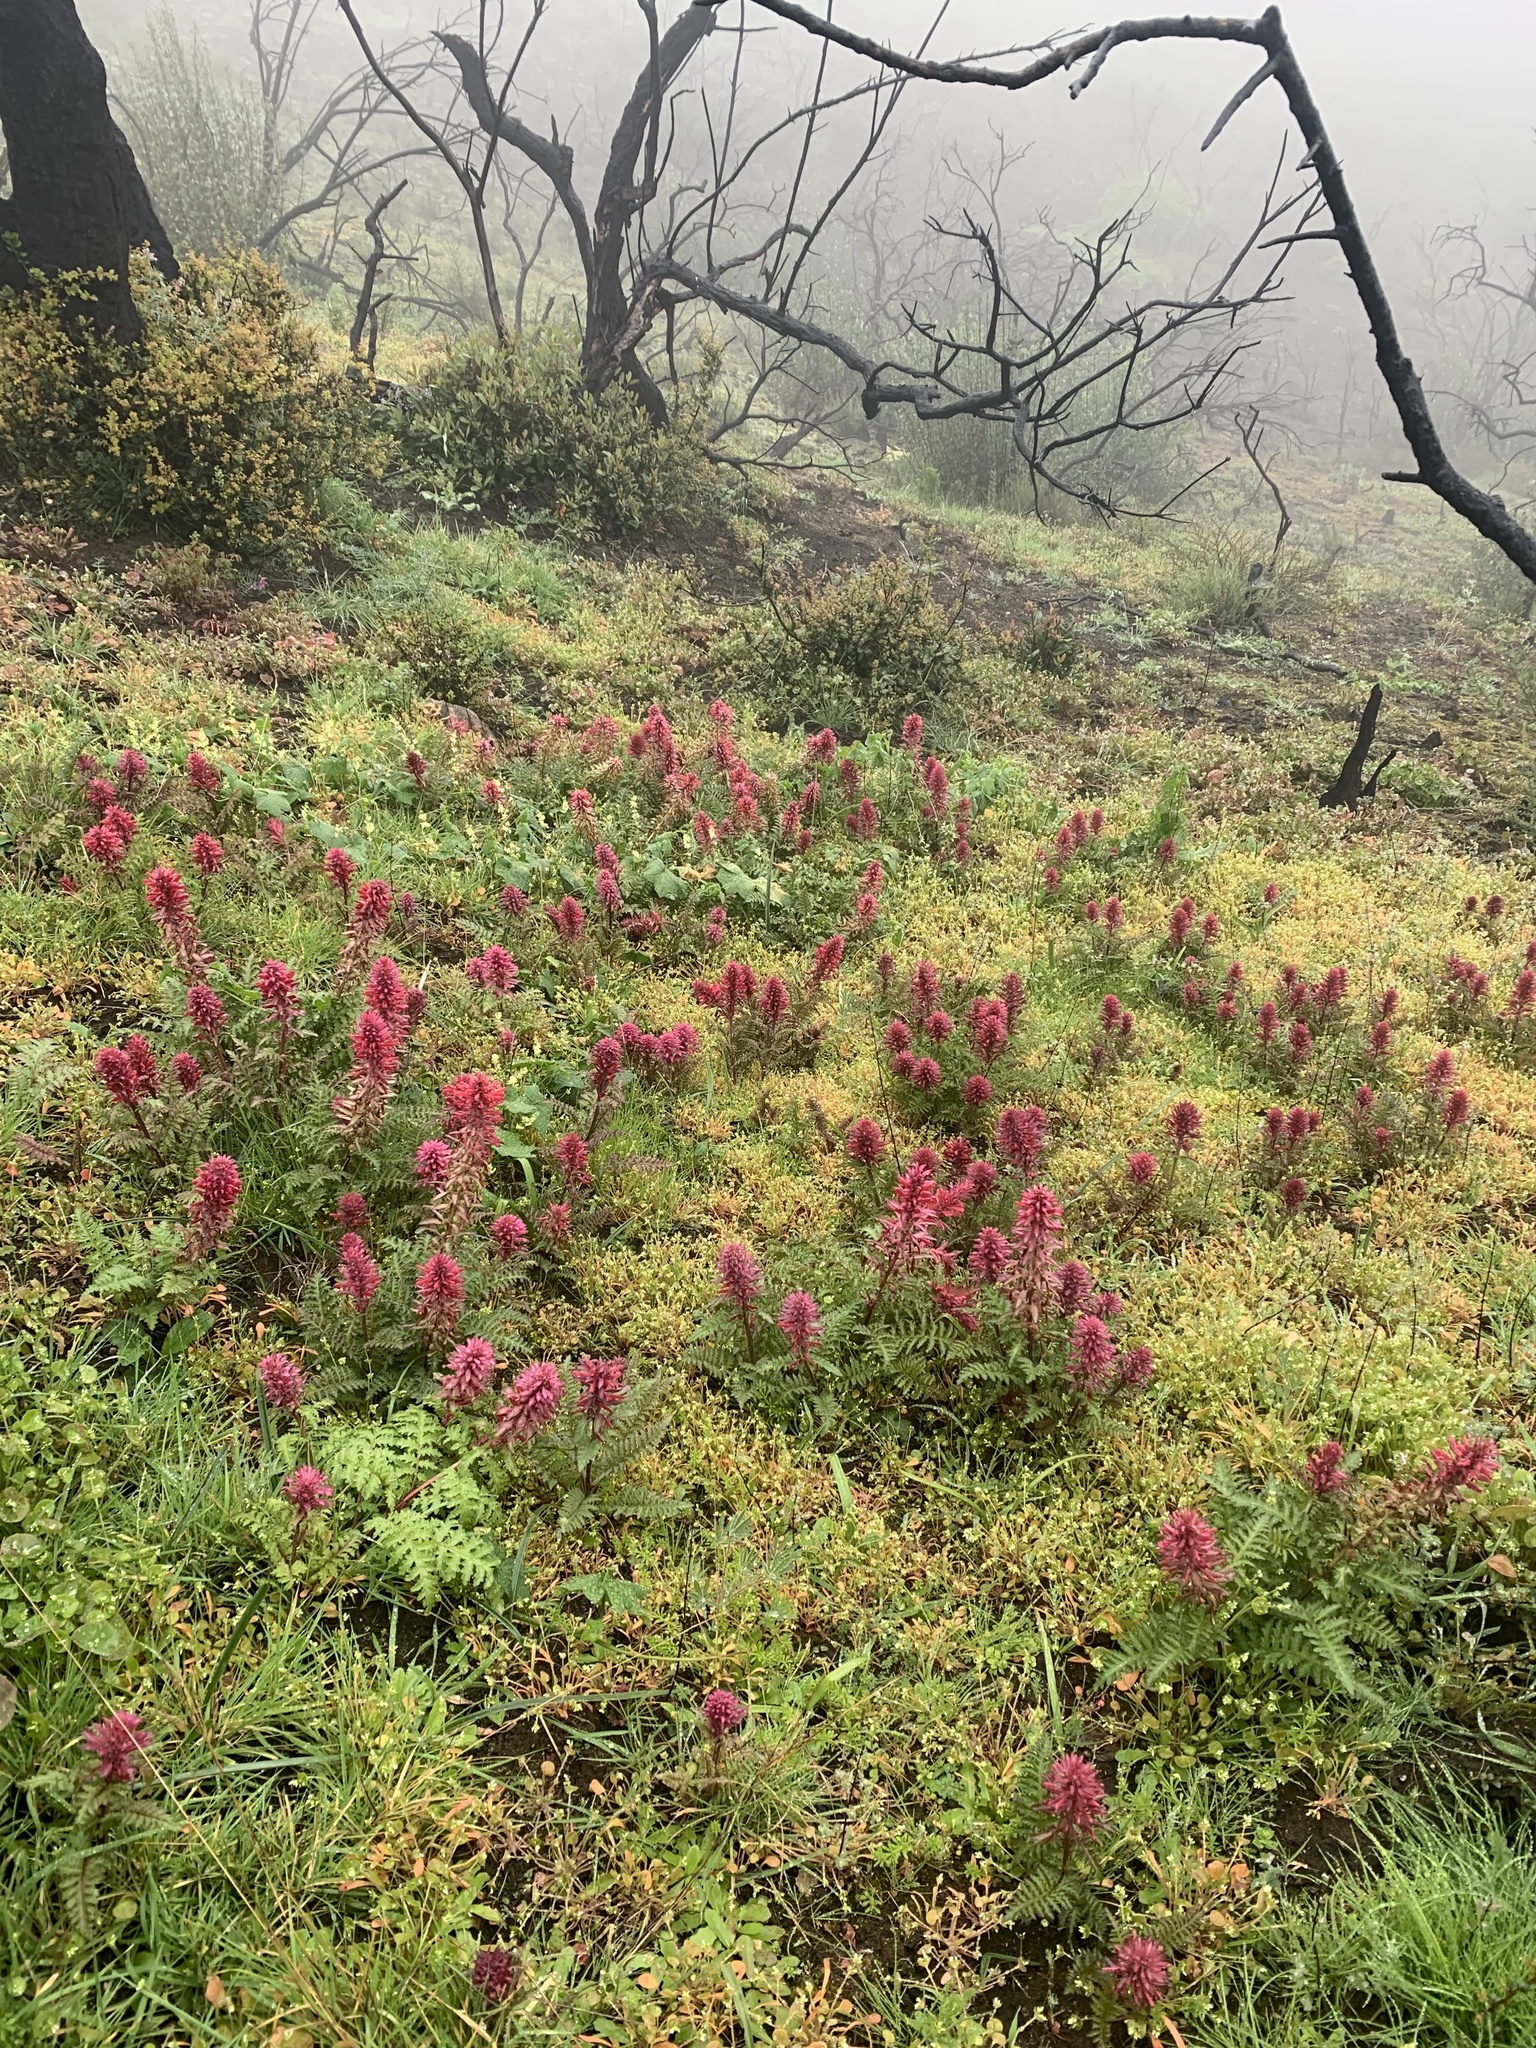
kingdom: Plantae
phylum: Tracheophyta
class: Magnoliopsida
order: Lamiales
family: Orobanchaceae
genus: Pedicularis
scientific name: Pedicularis densiflora
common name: Indian warrior
